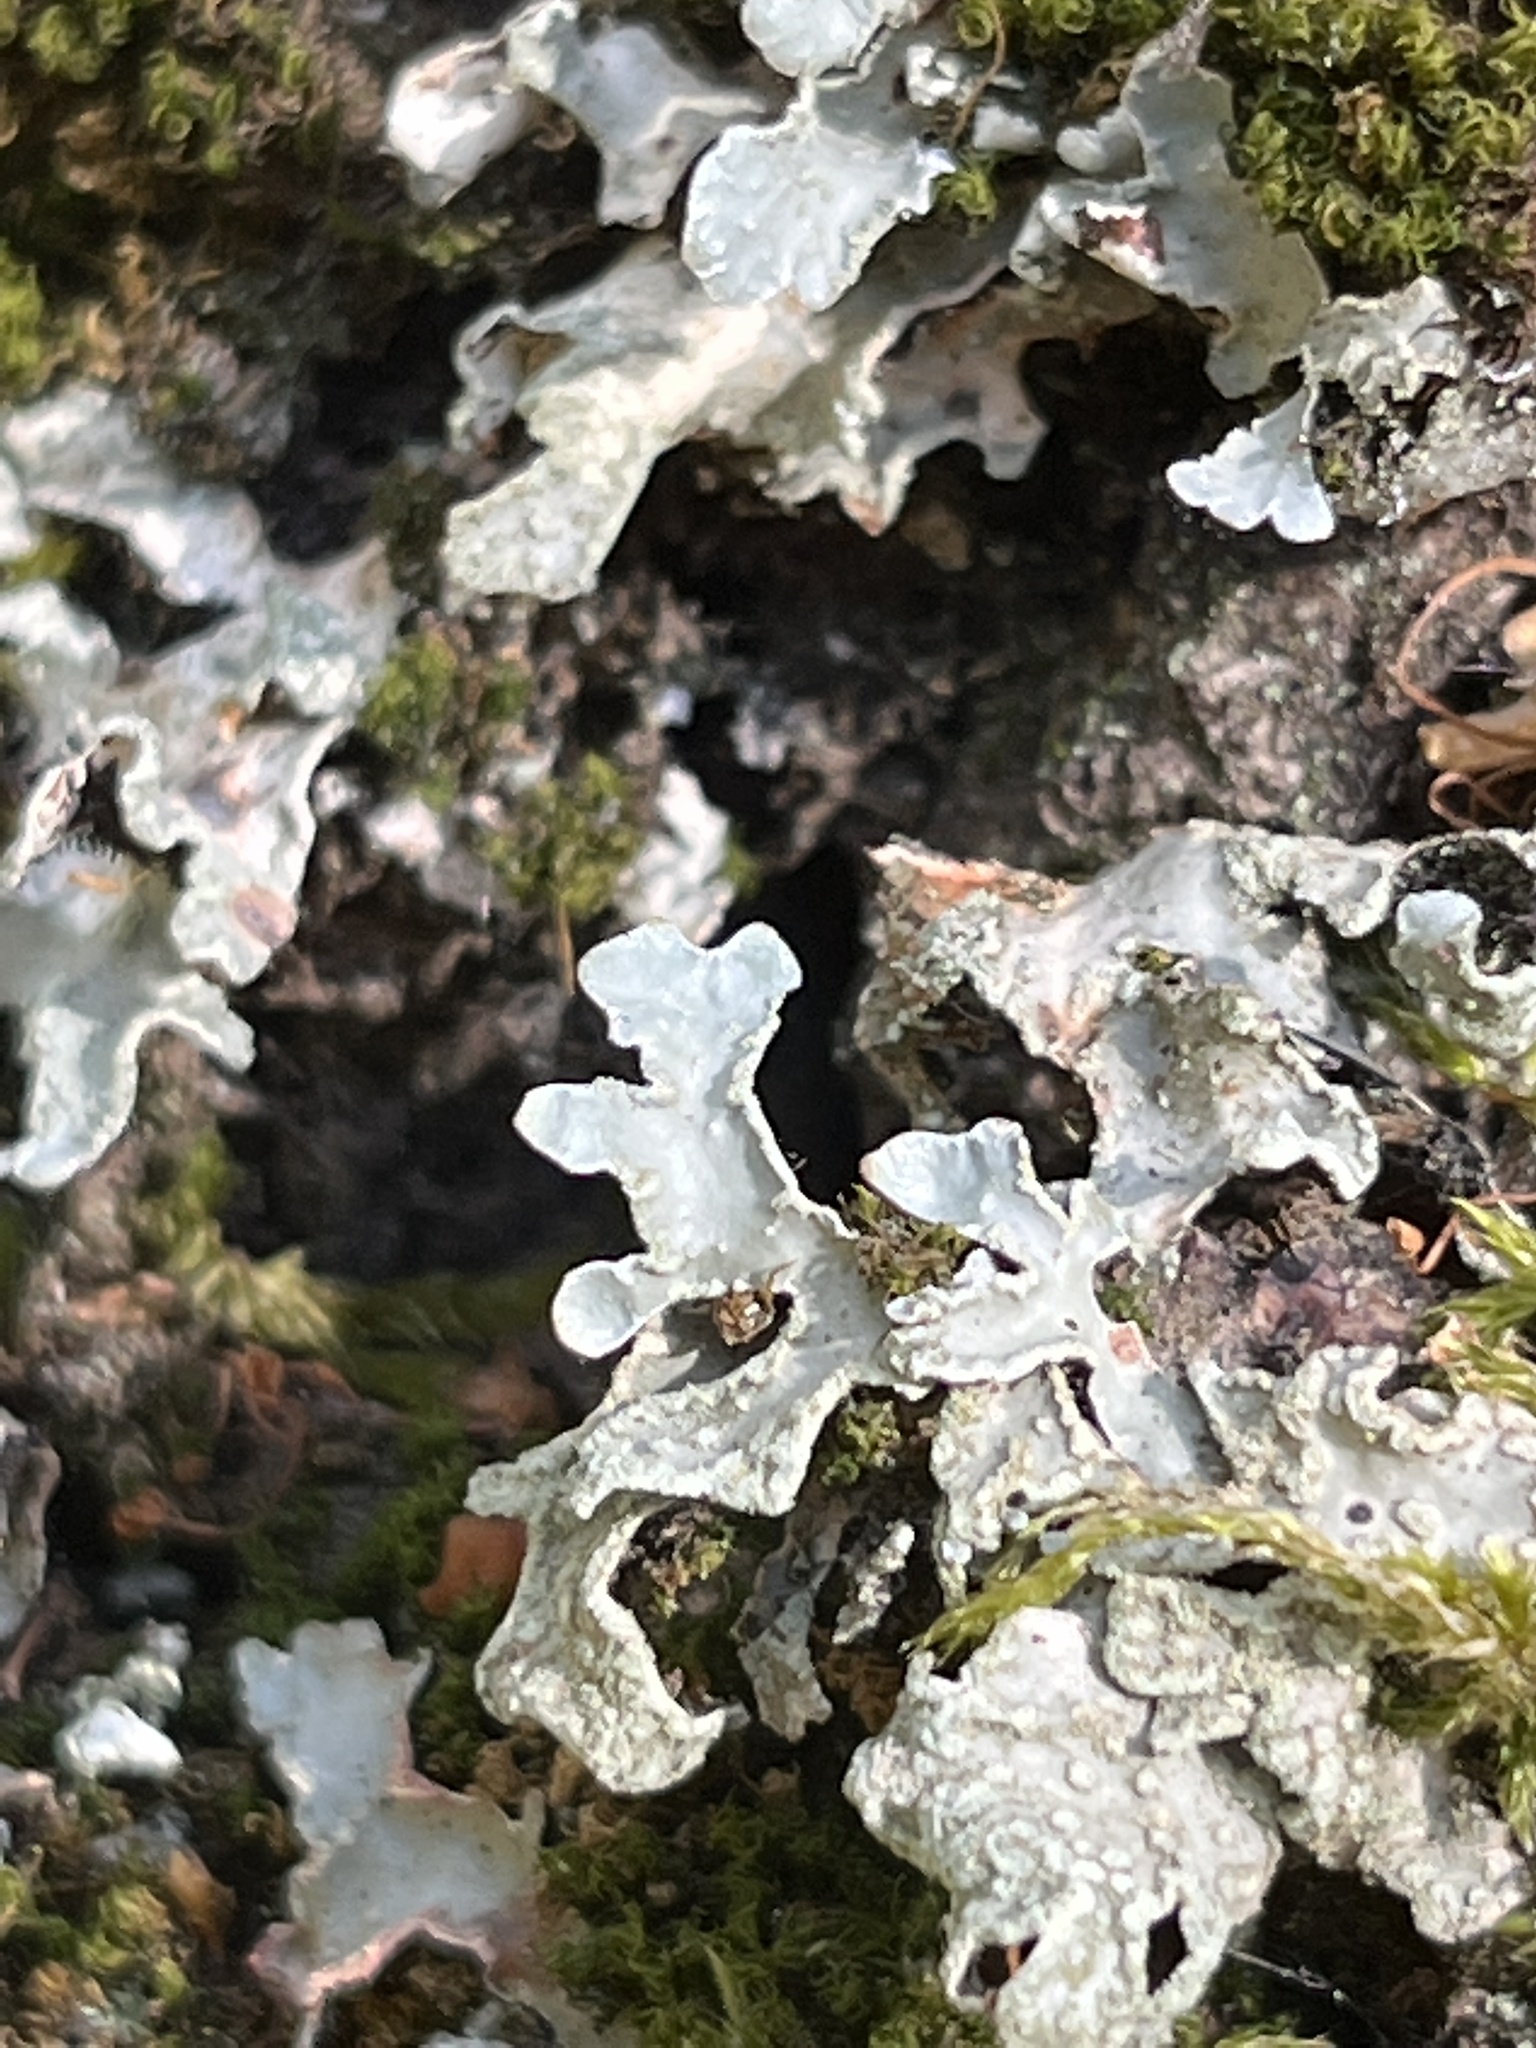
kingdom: Fungi
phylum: Ascomycota
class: Lecanoromycetes
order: Lecanorales
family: Parmeliaceae
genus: Parmelia
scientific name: Parmelia sulcata
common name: Netted shield lichen
